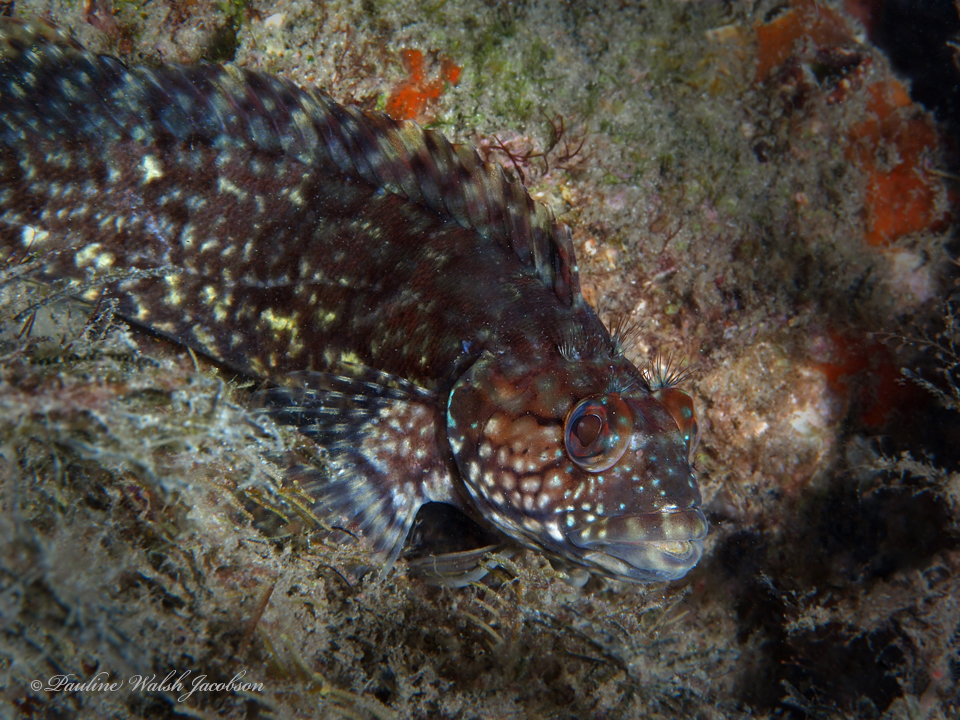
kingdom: Animalia
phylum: Chordata
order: Perciformes
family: Labrisomidae
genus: Labrisomus
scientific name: Labrisomus conditus
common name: Masquerader hairy blenny
